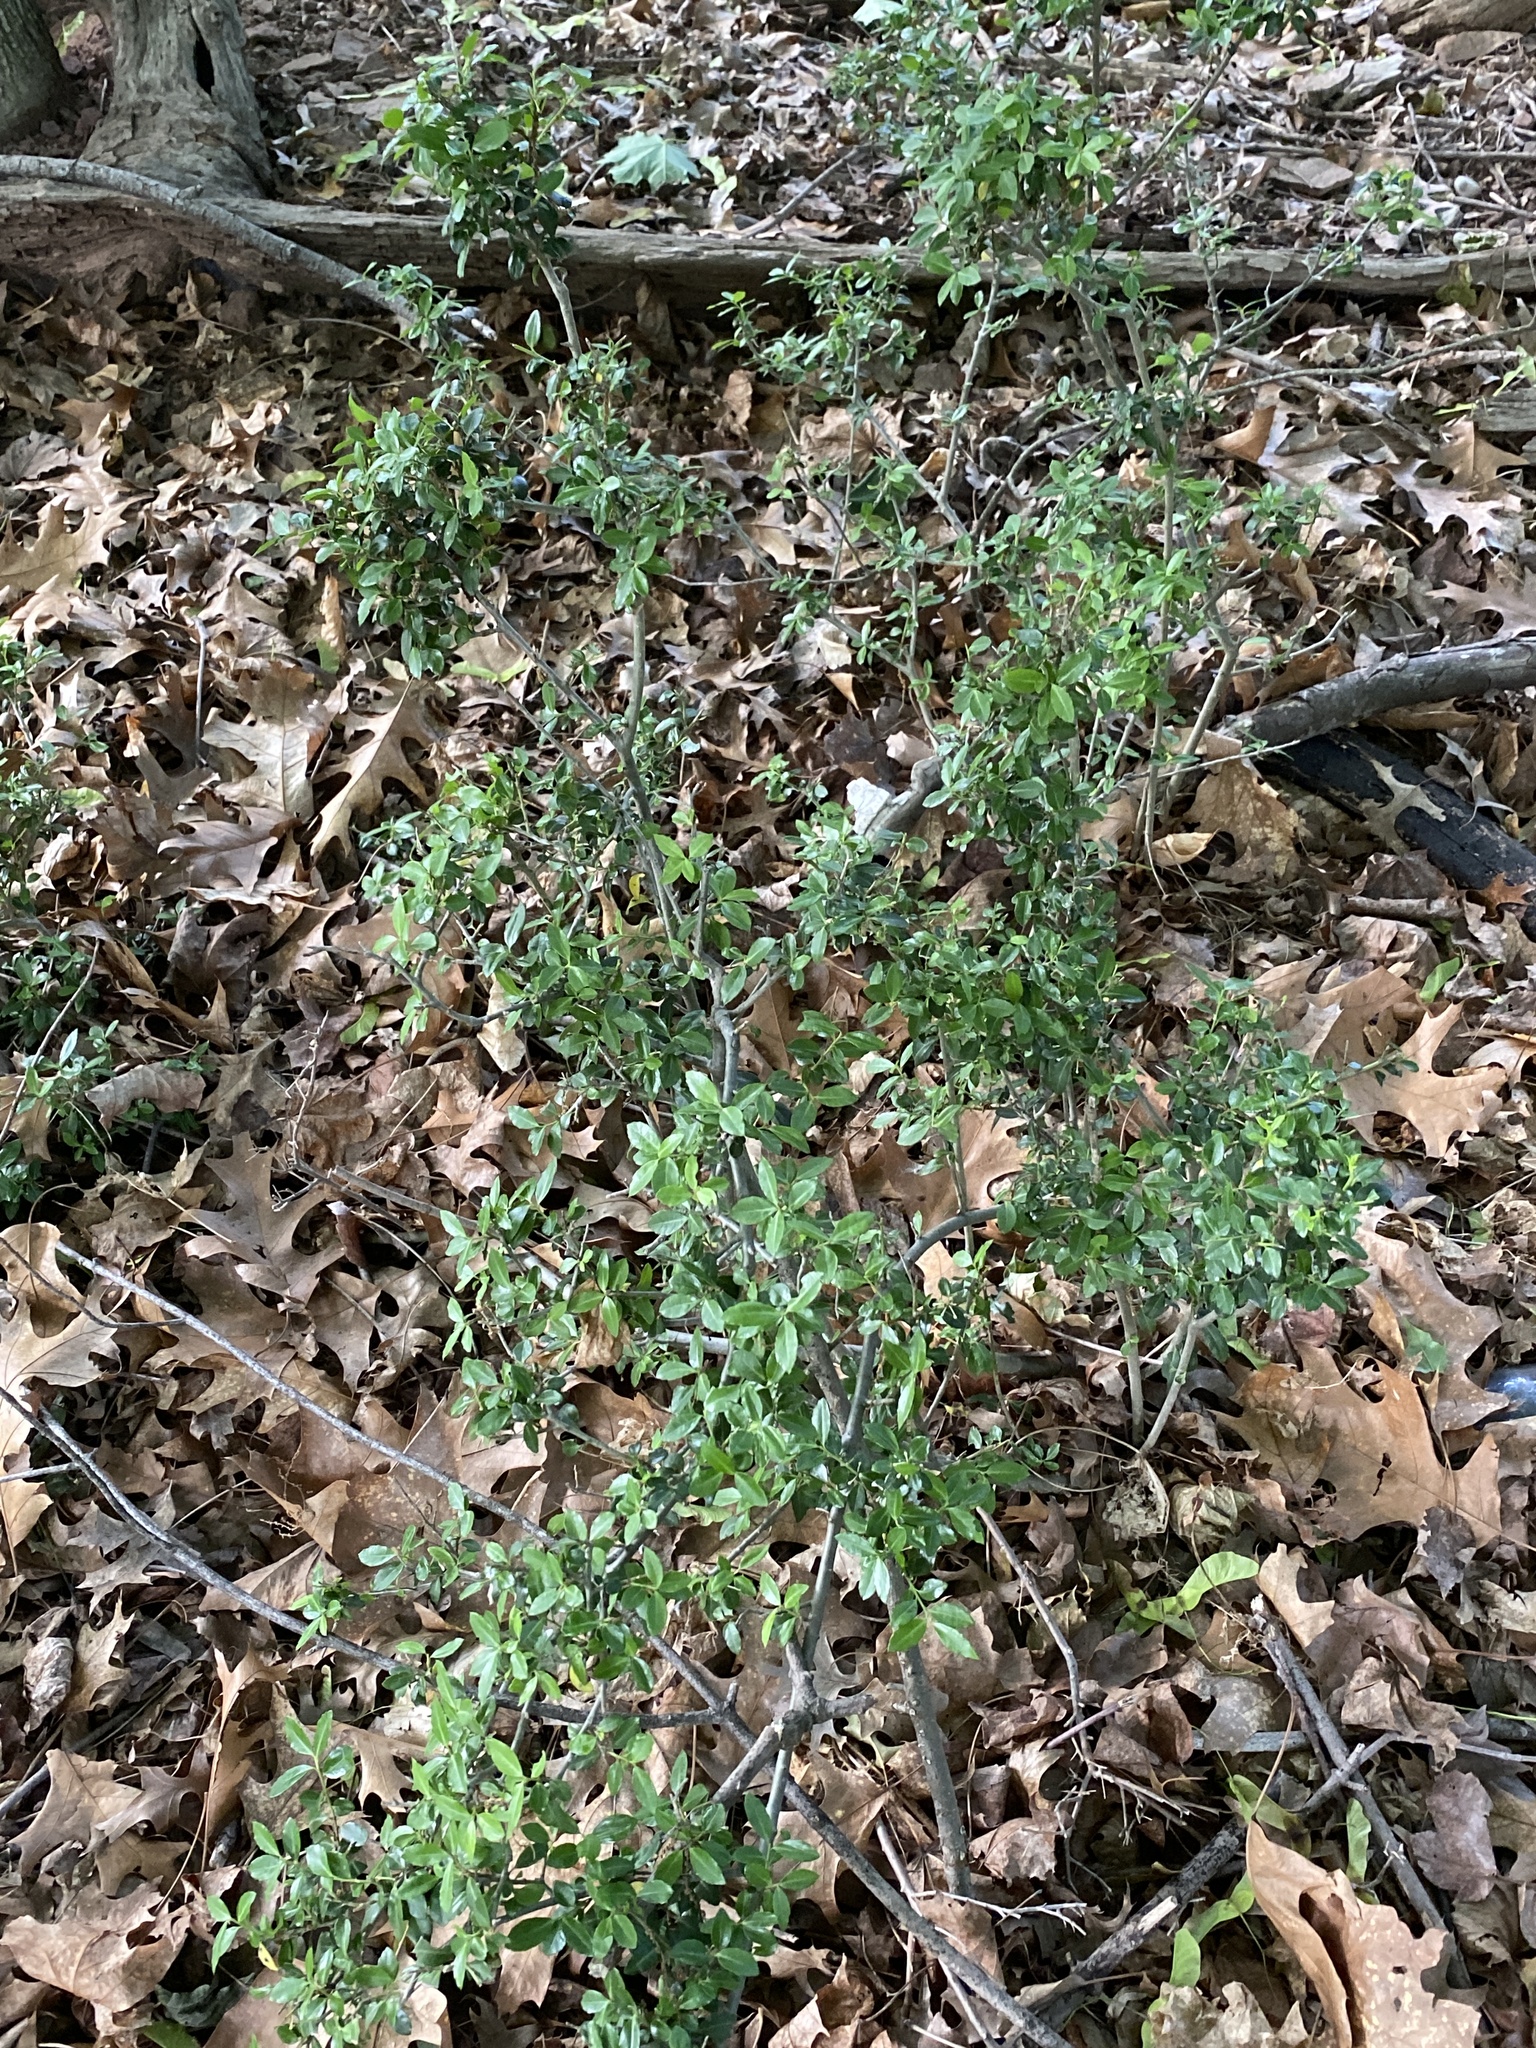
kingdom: Plantae
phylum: Tracheophyta
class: Magnoliopsida
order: Aquifoliales
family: Aquifoliaceae
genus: Ilex
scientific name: Ilex crenata
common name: Japanese holly
